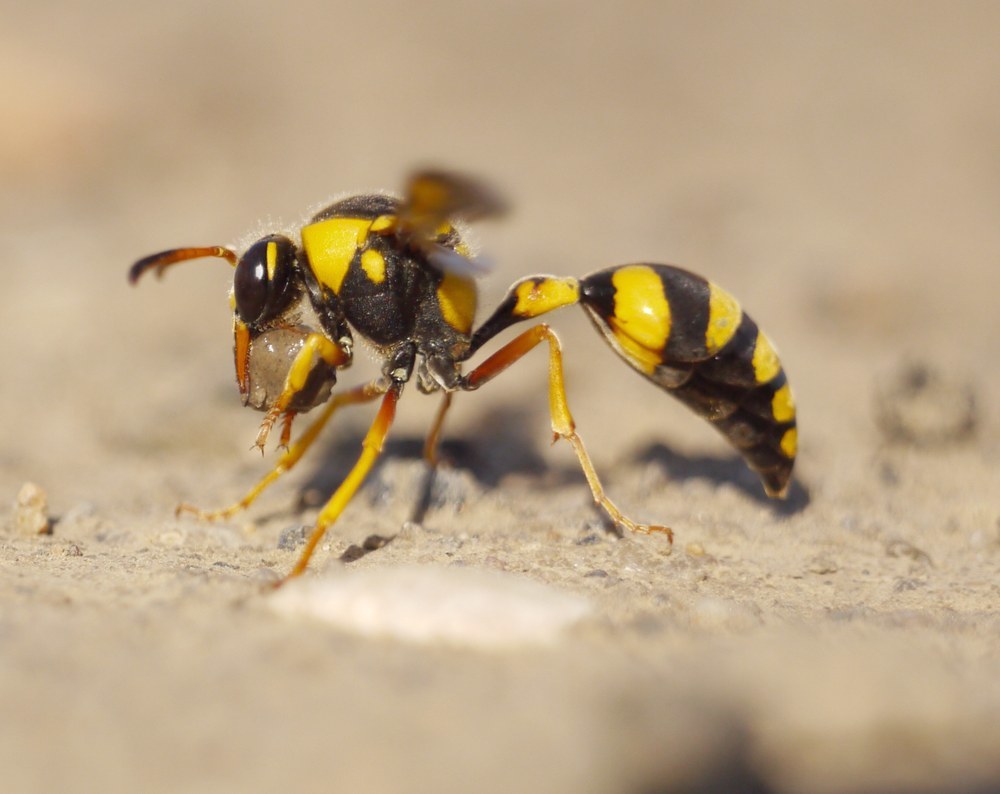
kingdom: Animalia
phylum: Arthropoda
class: Insecta
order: Hymenoptera
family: Eumenidae
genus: Katamenes
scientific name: Katamenes dimidiatus
